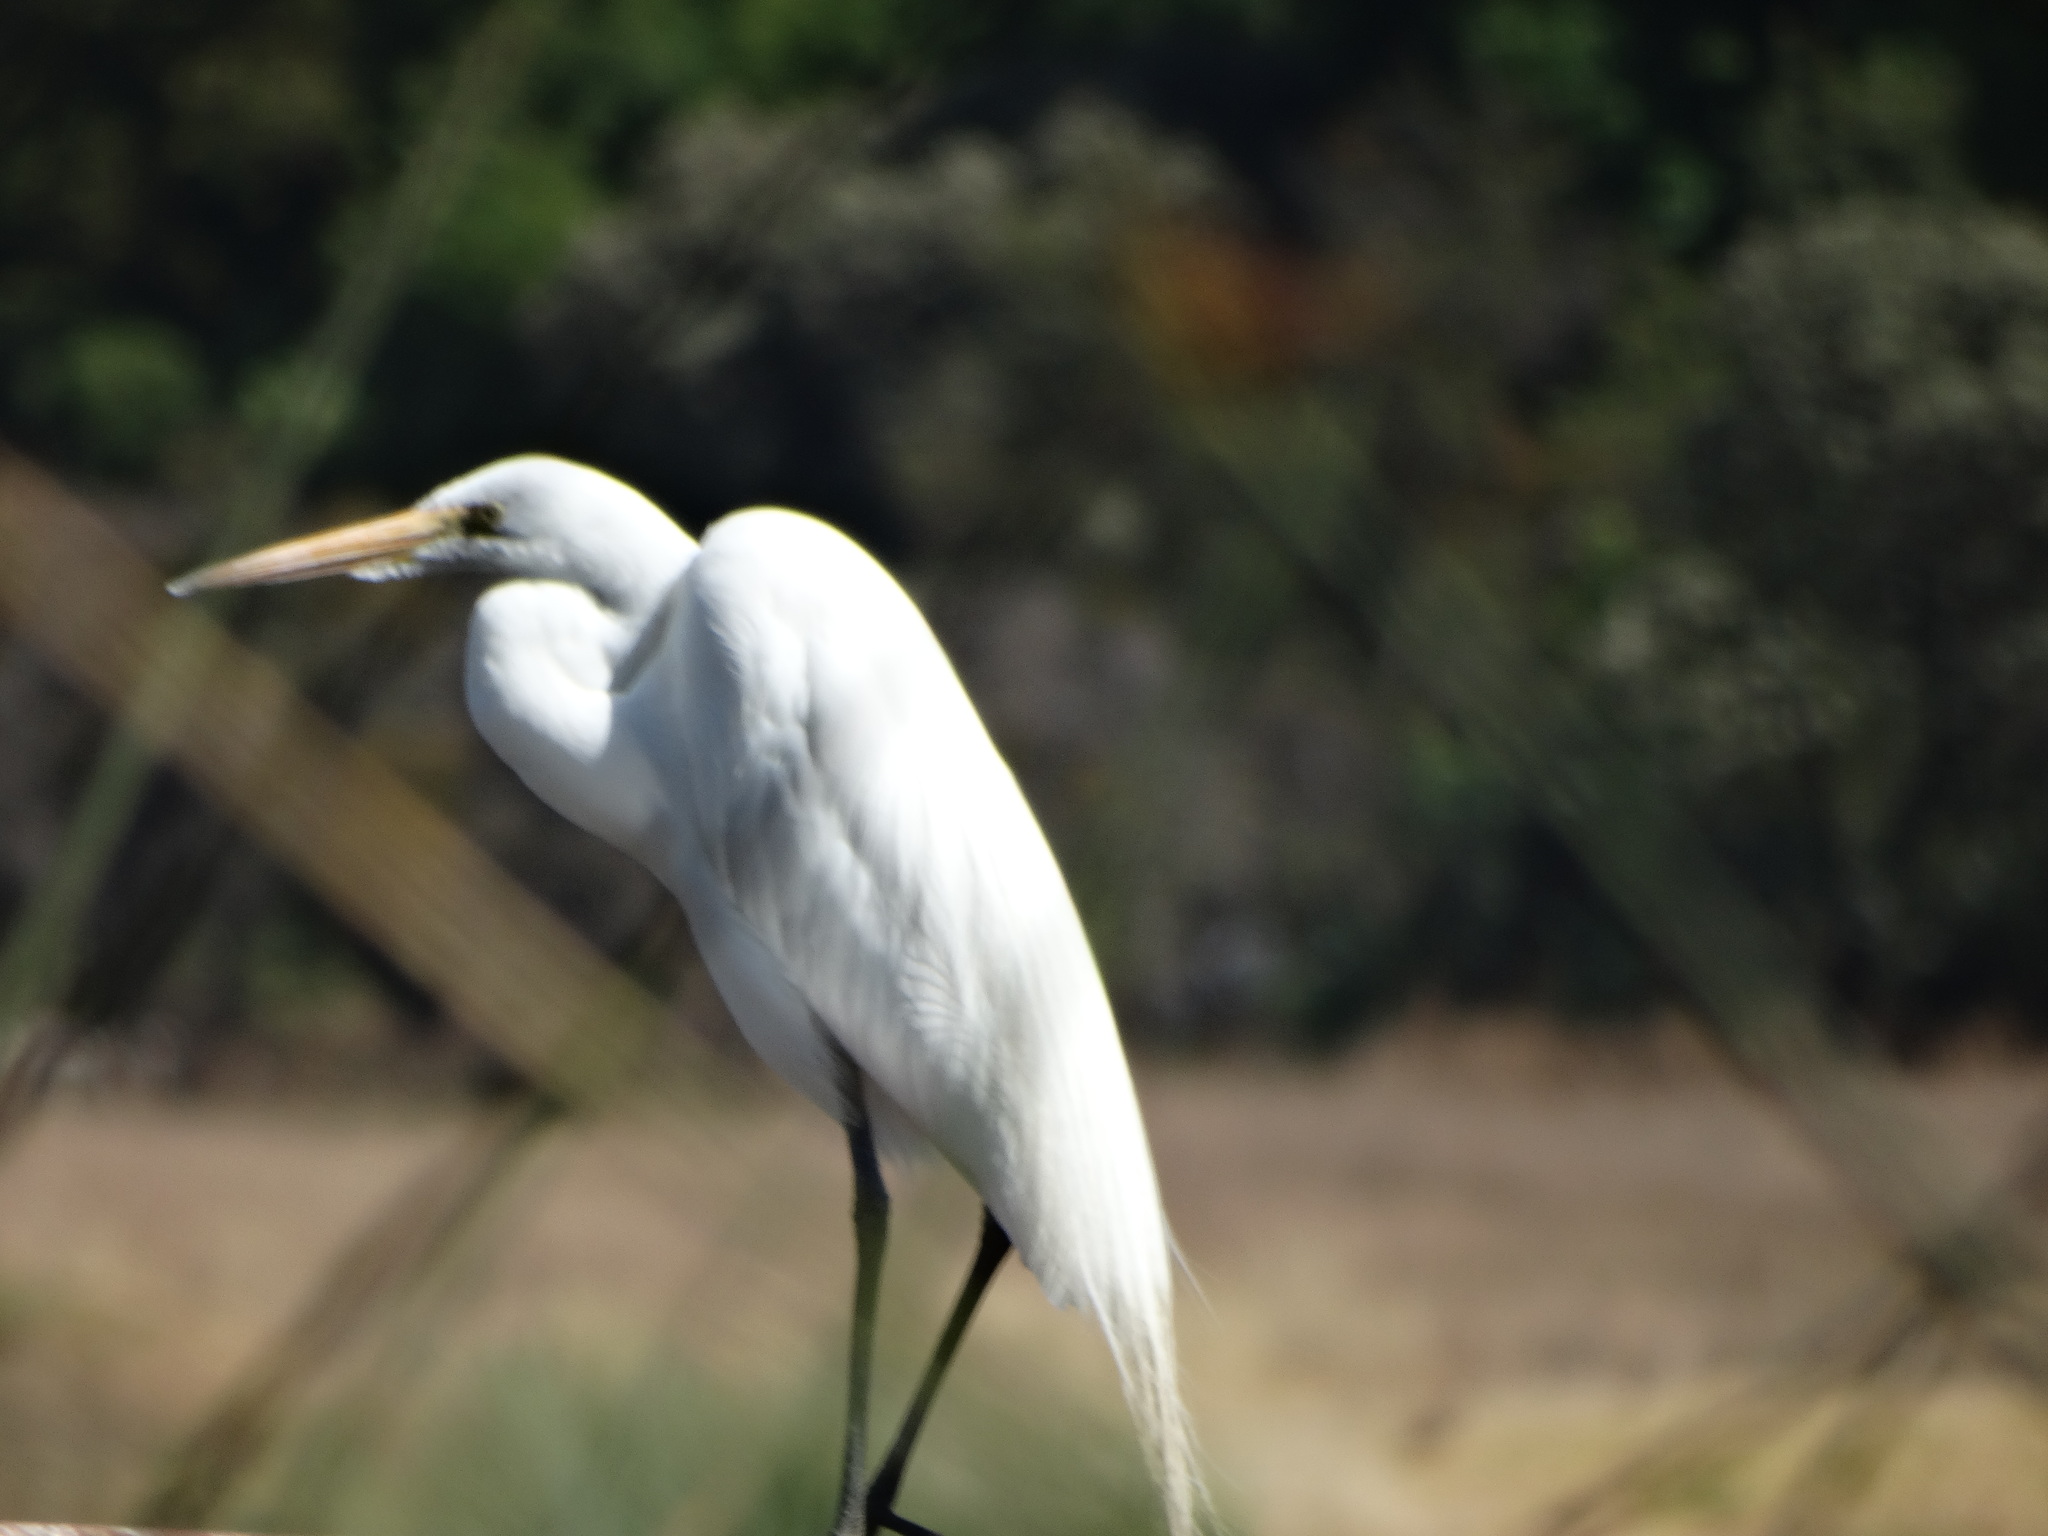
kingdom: Animalia
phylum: Chordata
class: Aves
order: Pelecaniformes
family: Ardeidae
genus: Ardea
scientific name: Ardea alba
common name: Great egret
